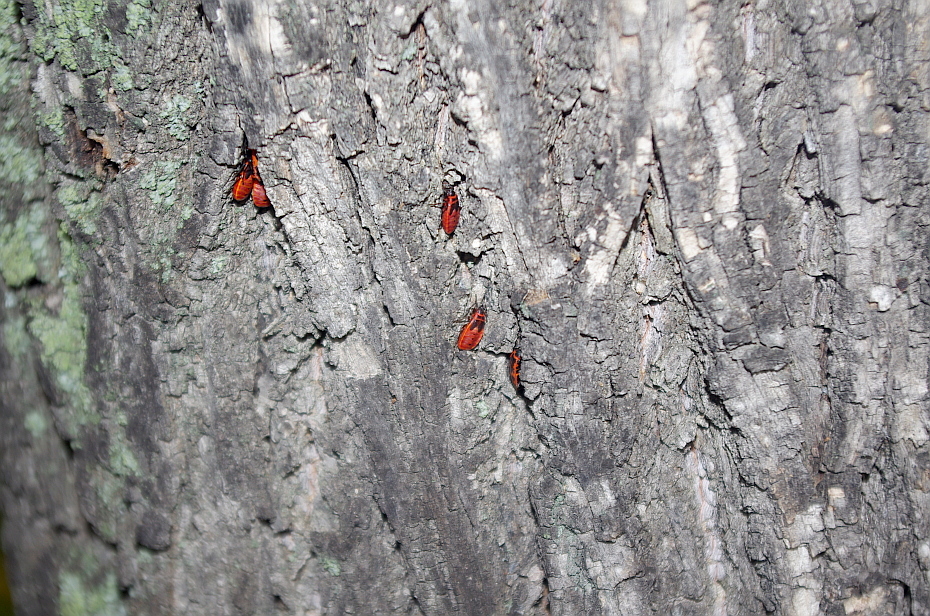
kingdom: Animalia
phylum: Arthropoda
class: Insecta
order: Hemiptera
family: Pyrrhocoridae
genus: Pyrrhocoris
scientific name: Pyrrhocoris apterus
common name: Firebug
